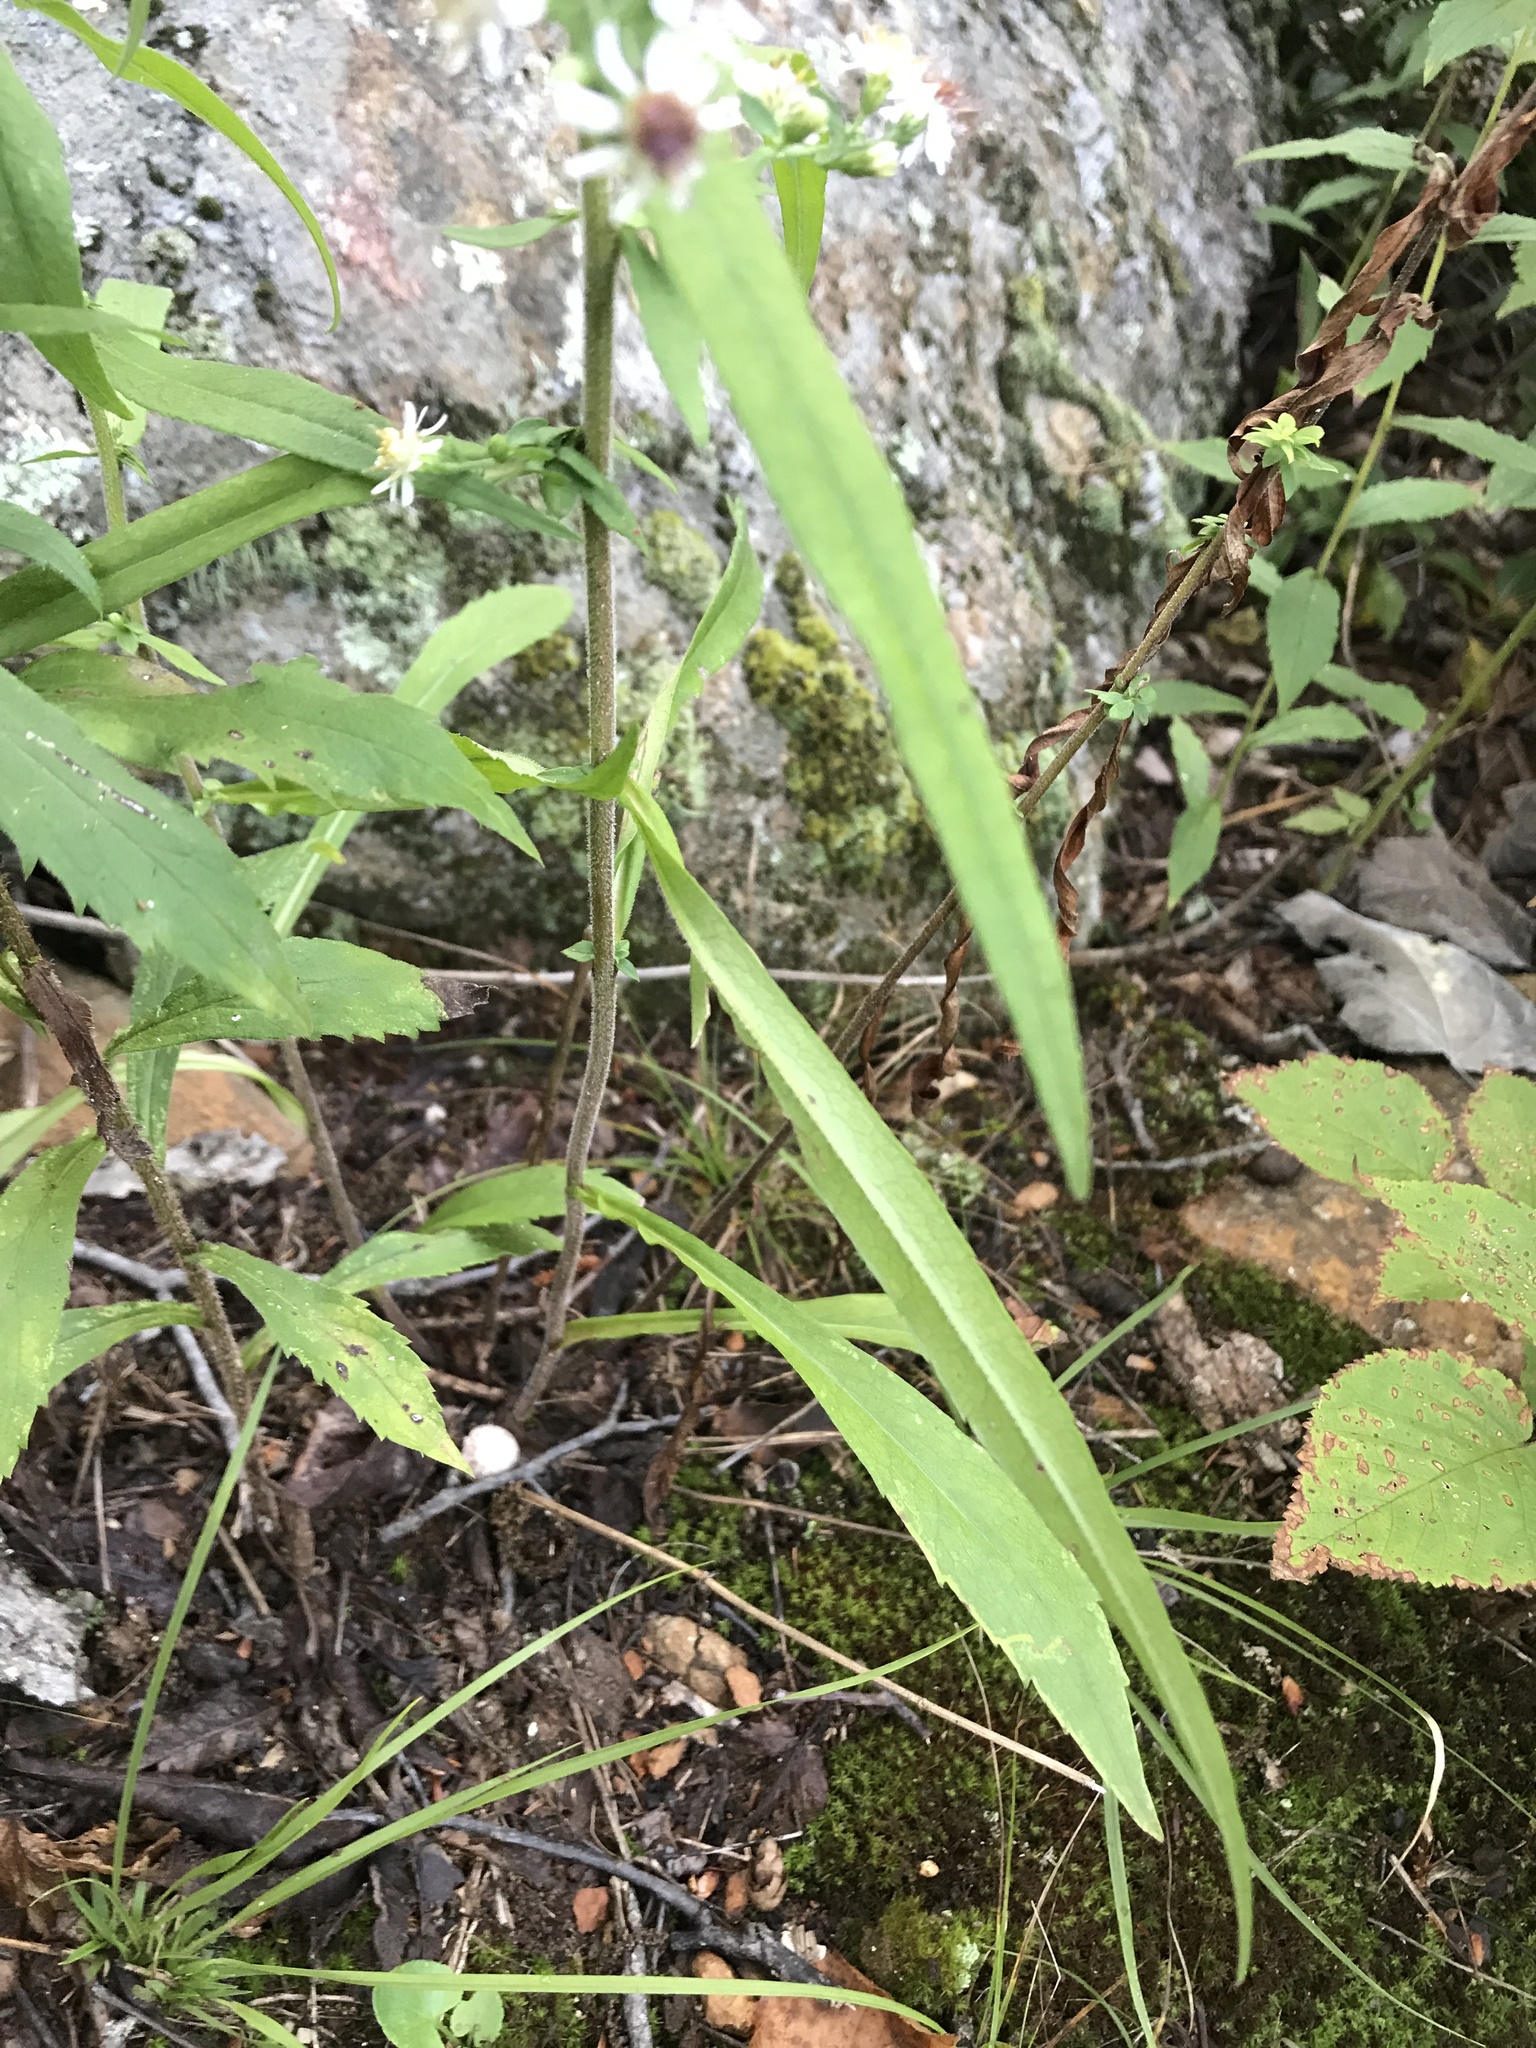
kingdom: Plantae
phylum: Tracheophyta
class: Magnoliopsida
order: Asterales
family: Asteraceae
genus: Symphyotrichum
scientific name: Symphyotrichum lateriflorum
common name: Calico aster
